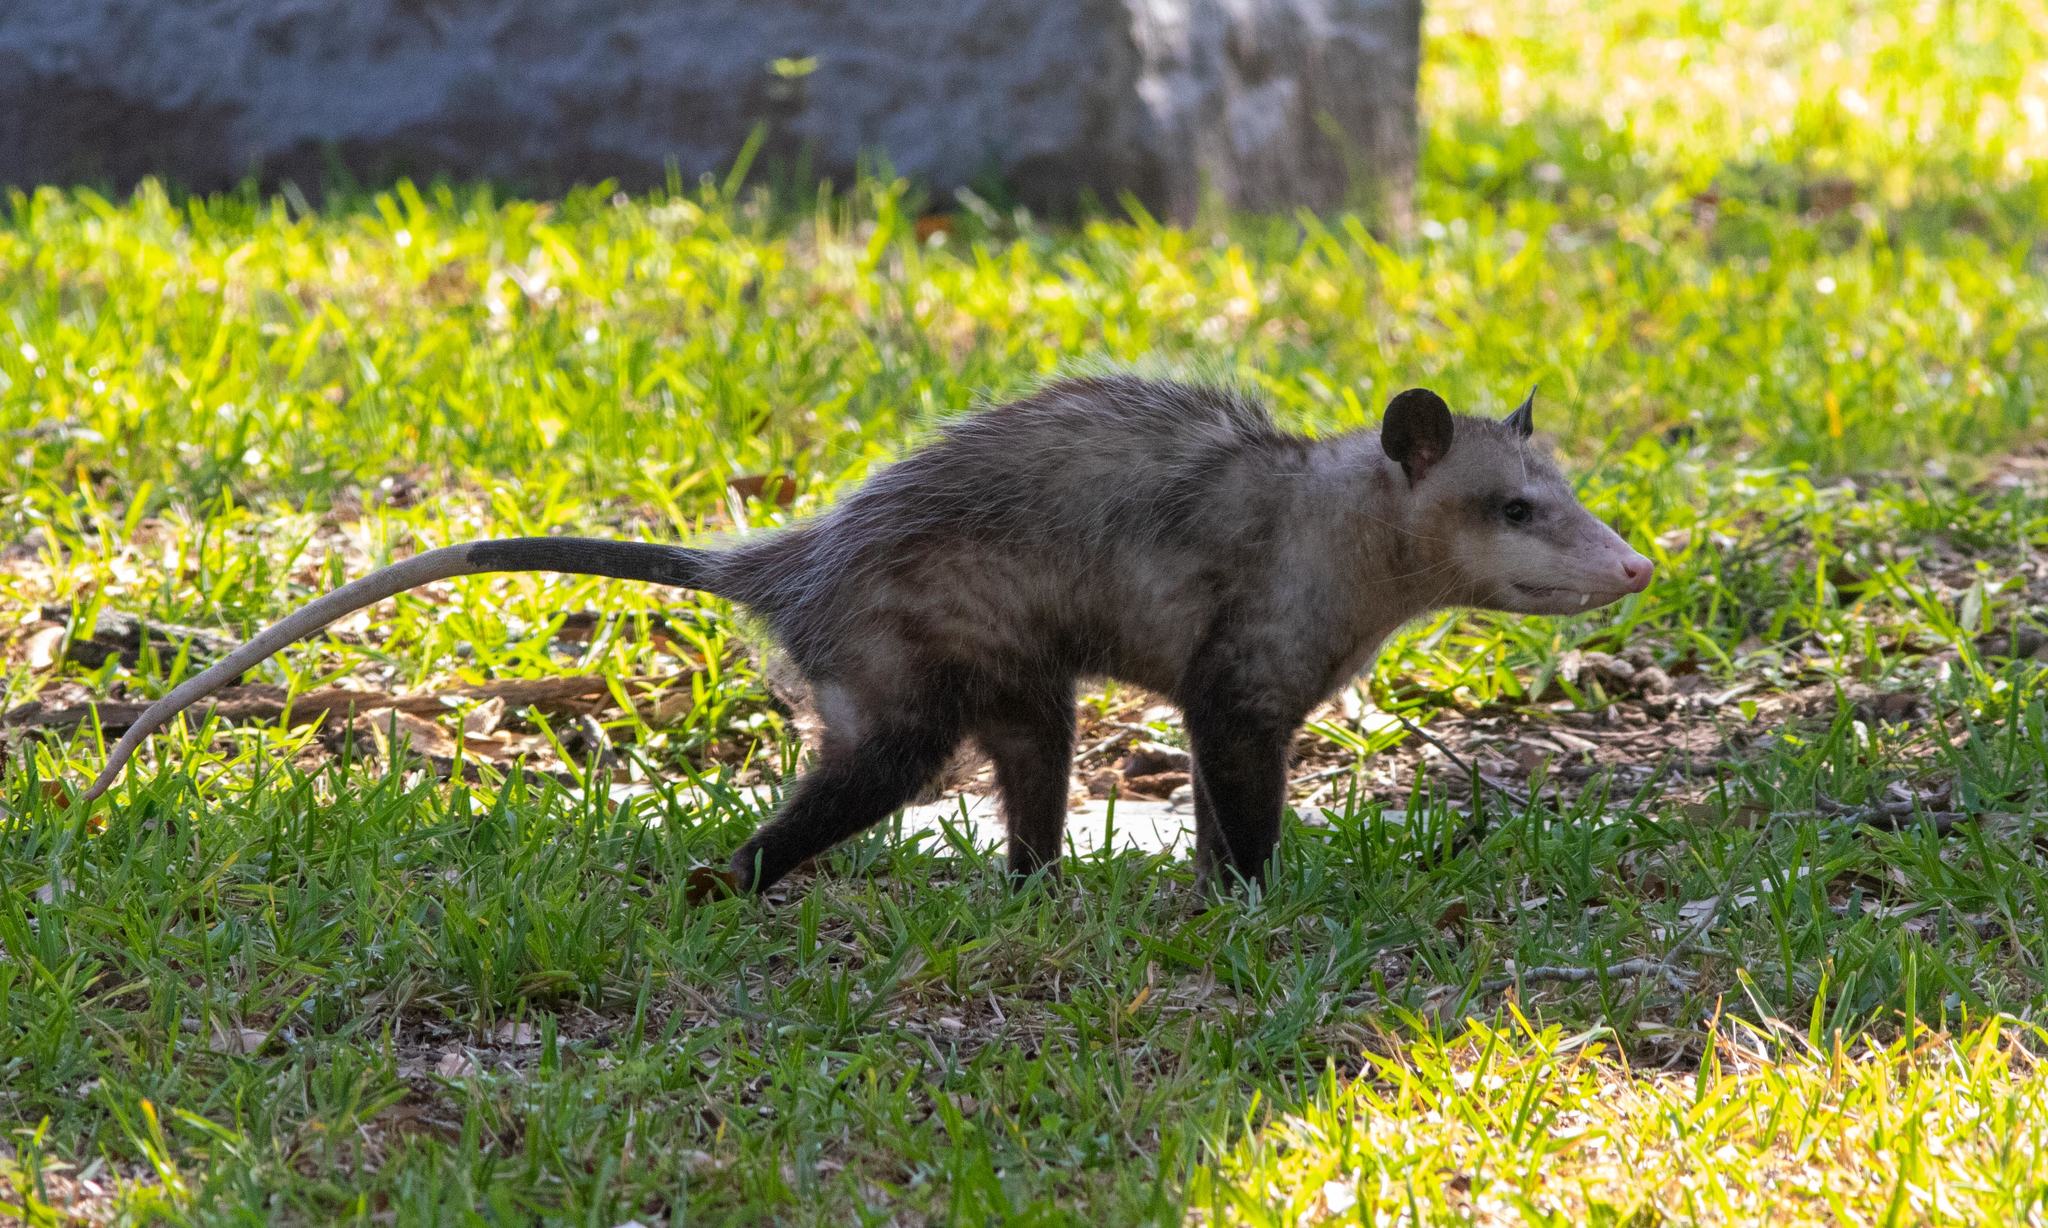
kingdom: Animalia
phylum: Chordata
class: Mammalia
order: Didelphimorphia
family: Didelphidae
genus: Didelphis
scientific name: Didelphis virginiana
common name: Virginia opossum
